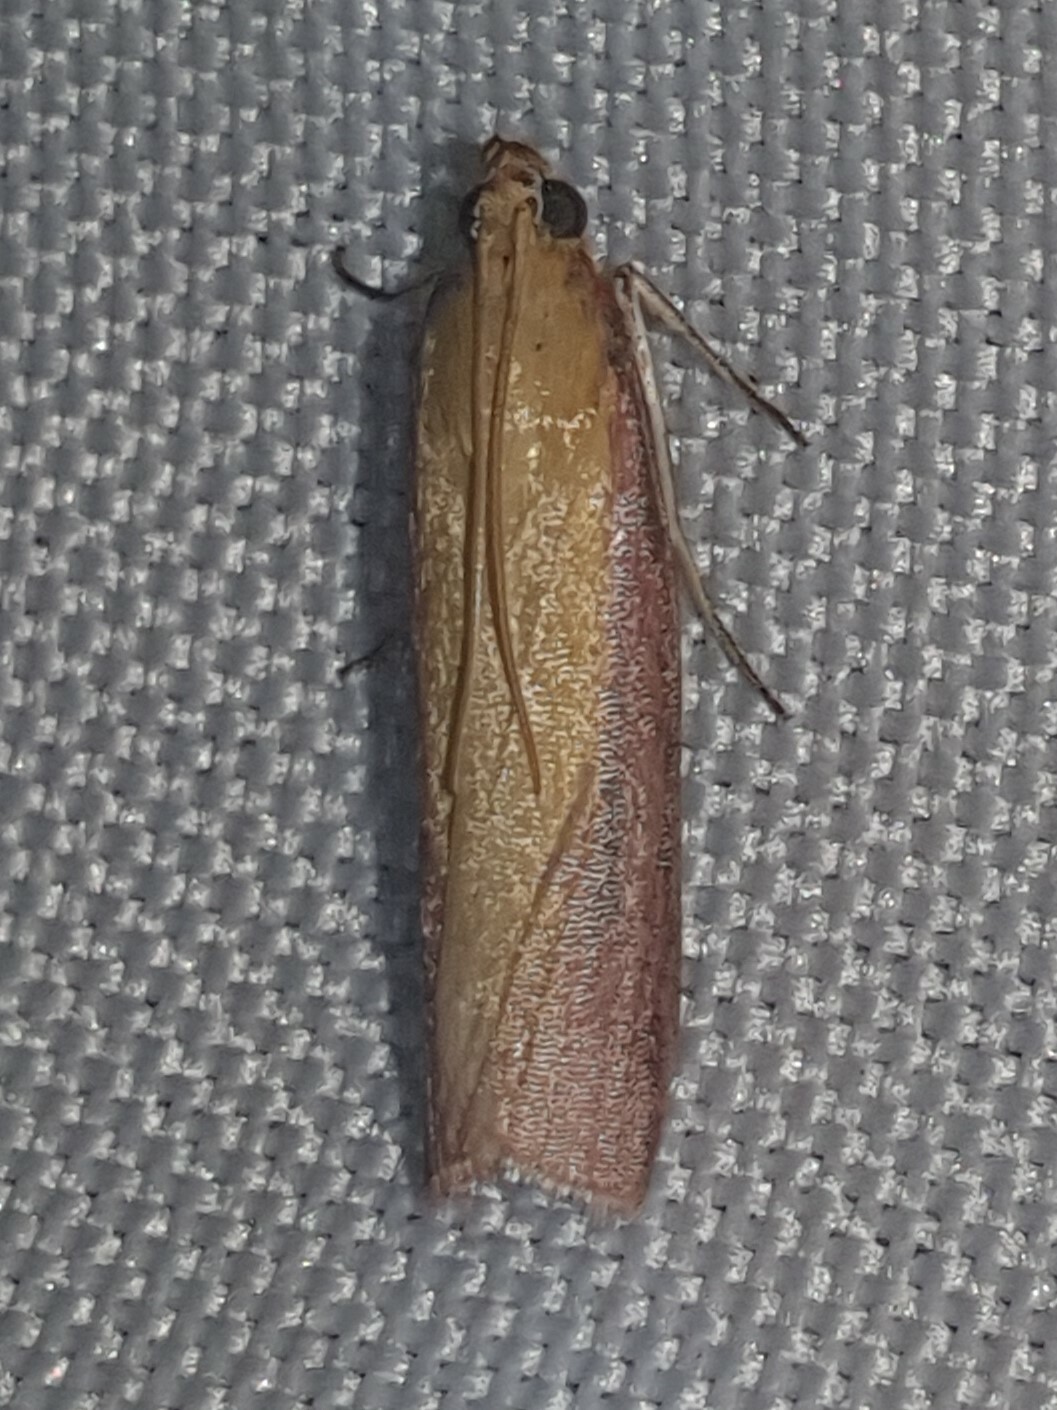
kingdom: Animalia
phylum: Arthropoda
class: Insecta
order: Lepidoptera
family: Pyralidae
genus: Oncocera
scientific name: Oncocera semirubella
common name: Rosy-striped knot-horn
